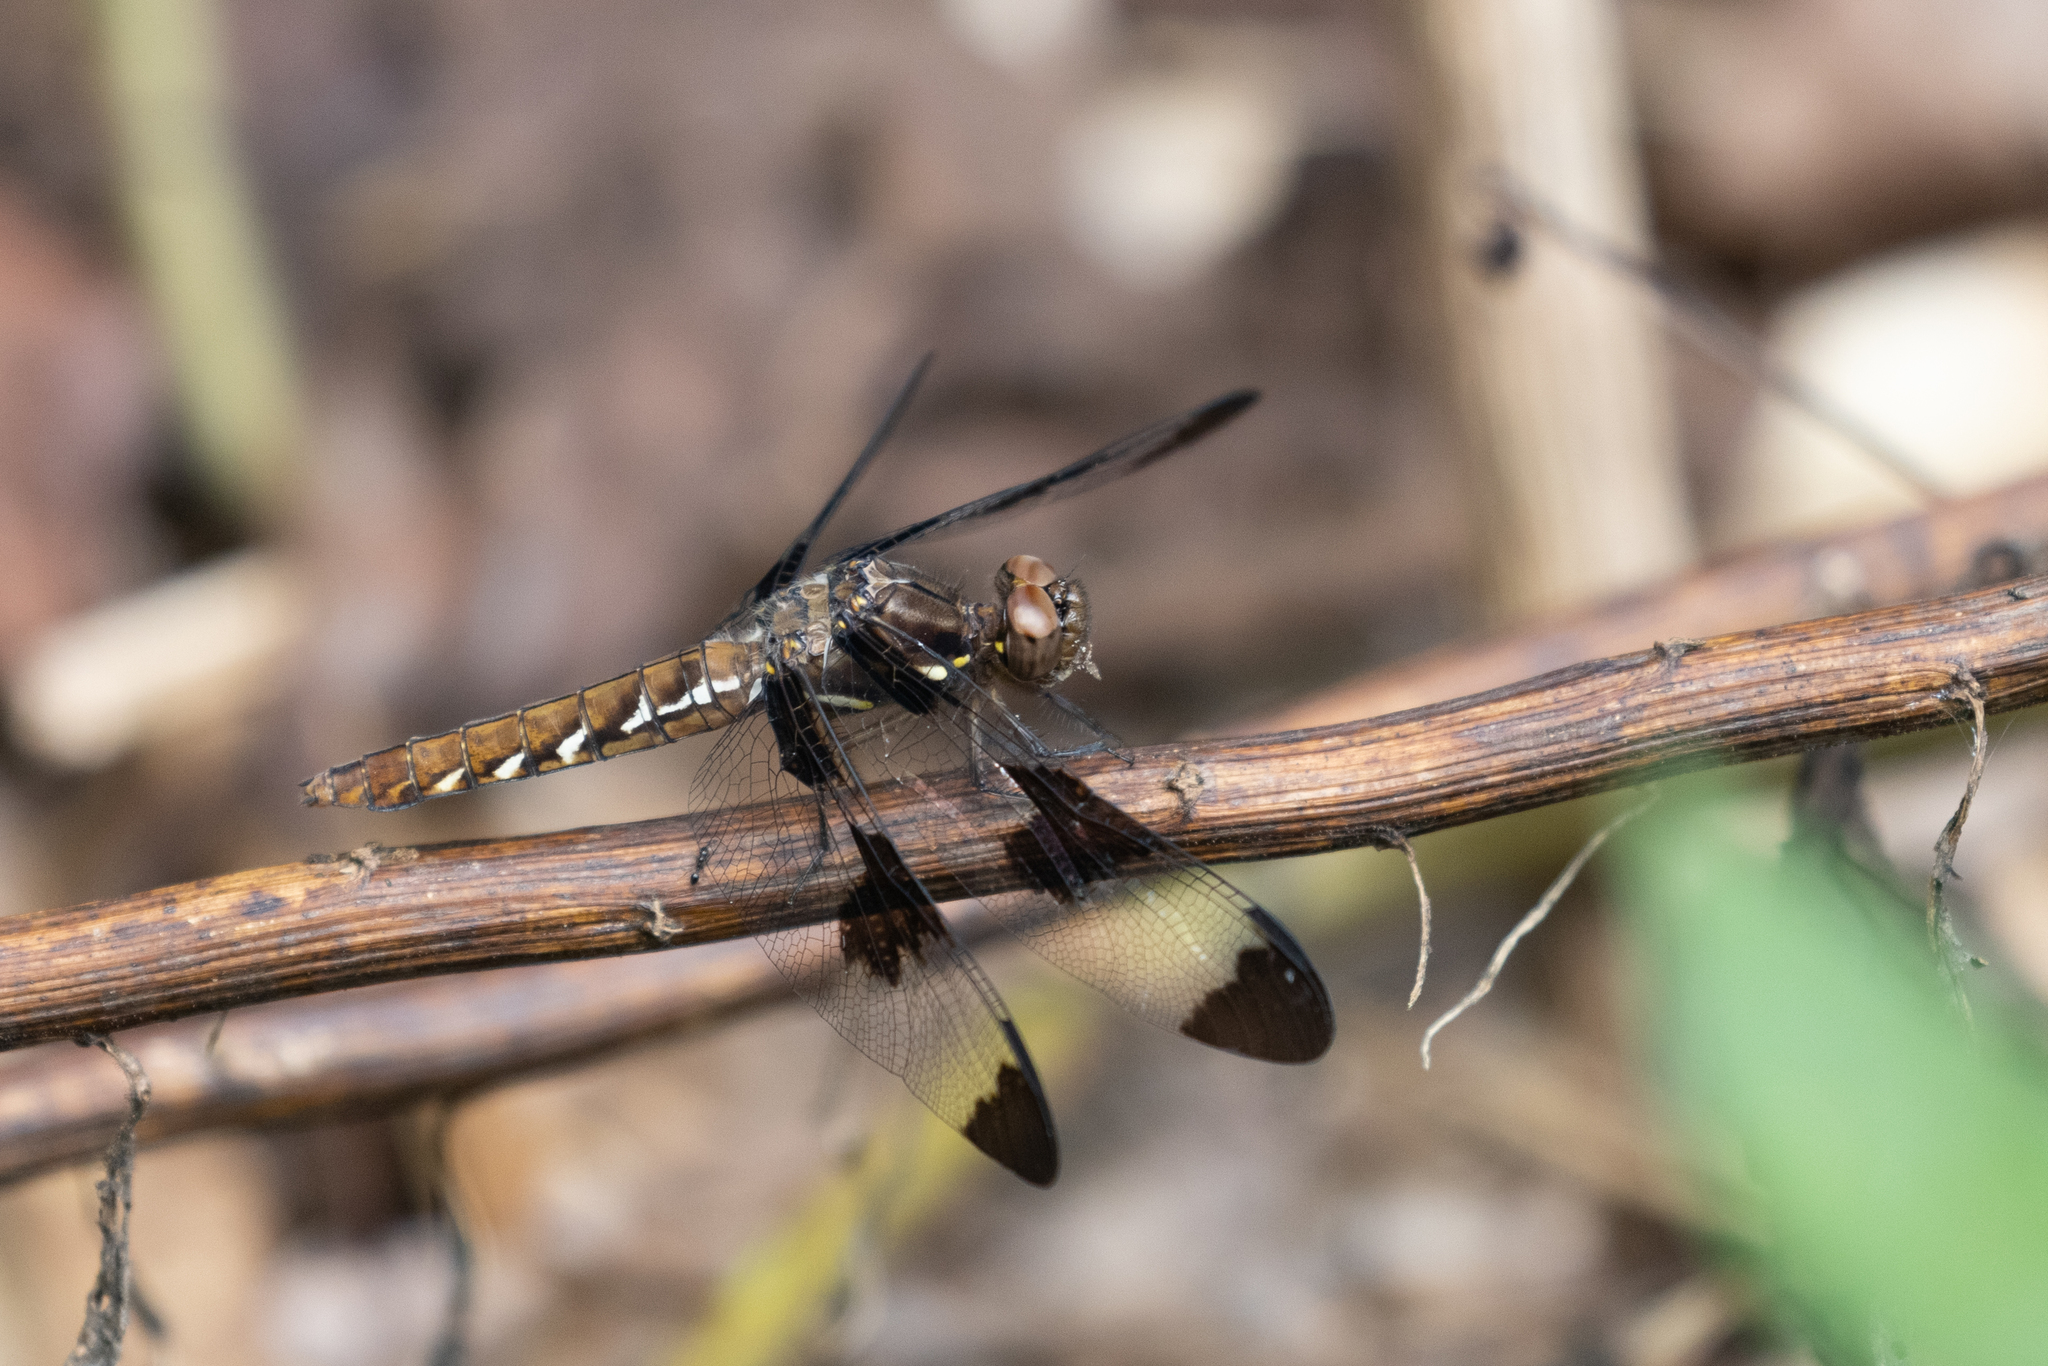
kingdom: Animalia
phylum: Arthropoda
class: Insecta
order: Odonata
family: Libellulidae
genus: Plathemis
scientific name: Plathemis lydia
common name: Common whitetail
